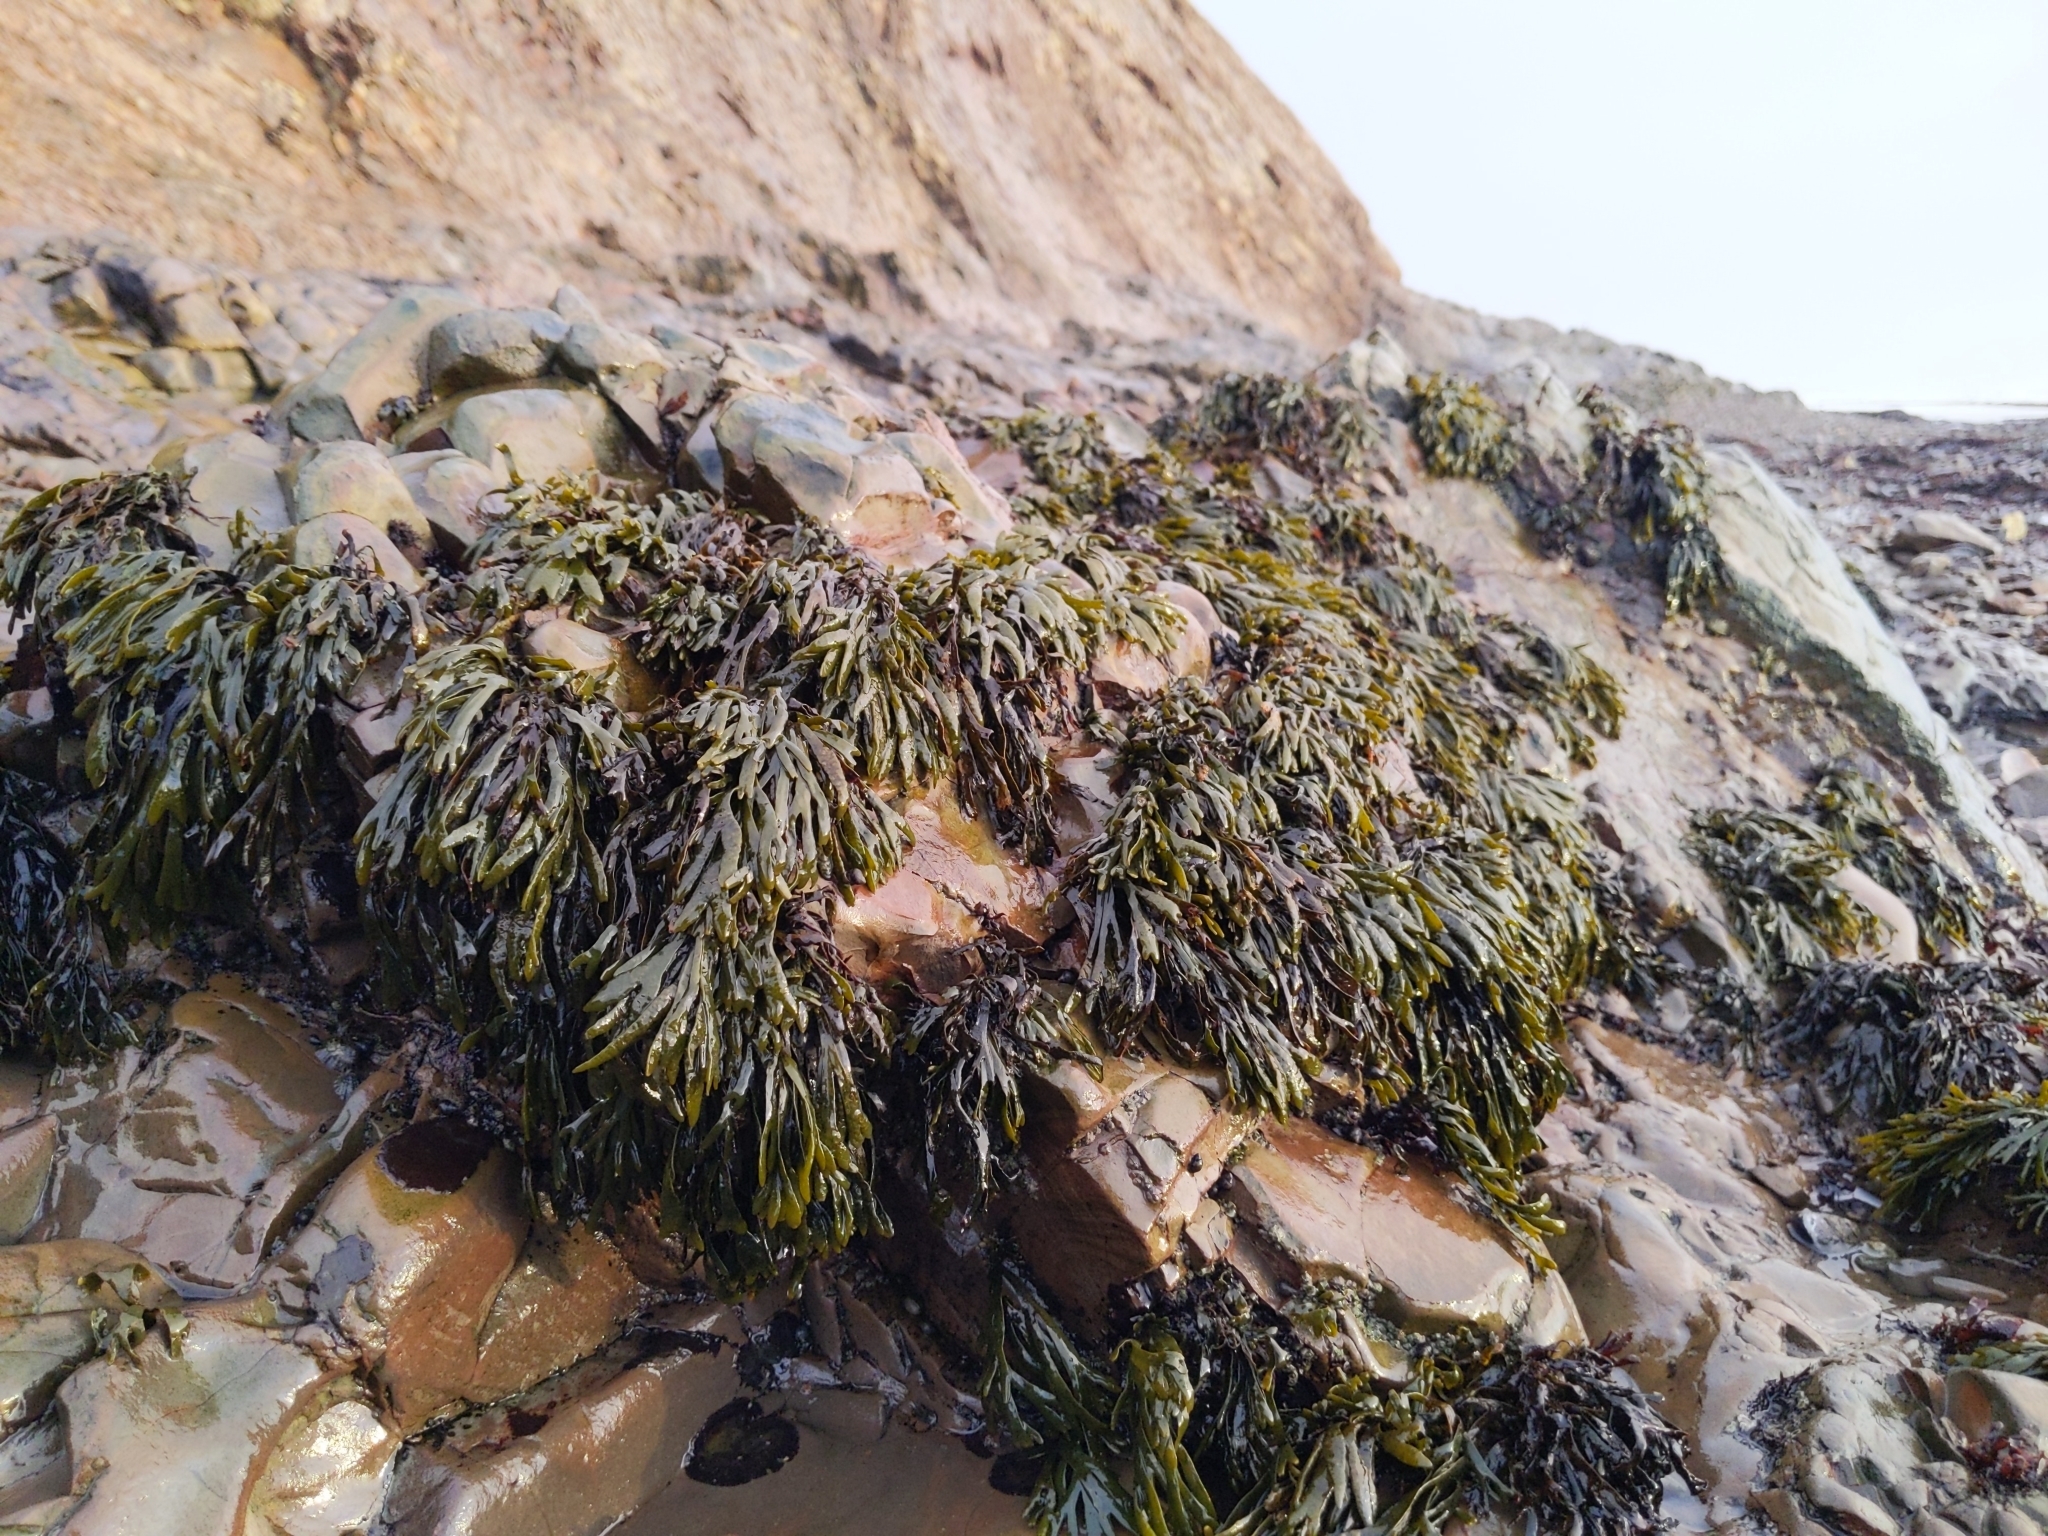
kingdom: Chromista
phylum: Ochrophyta
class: Phaeophyceae
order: Fucales
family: Fucaceae
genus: Pelvetiopsis
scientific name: Pelvetiopsis limitata
